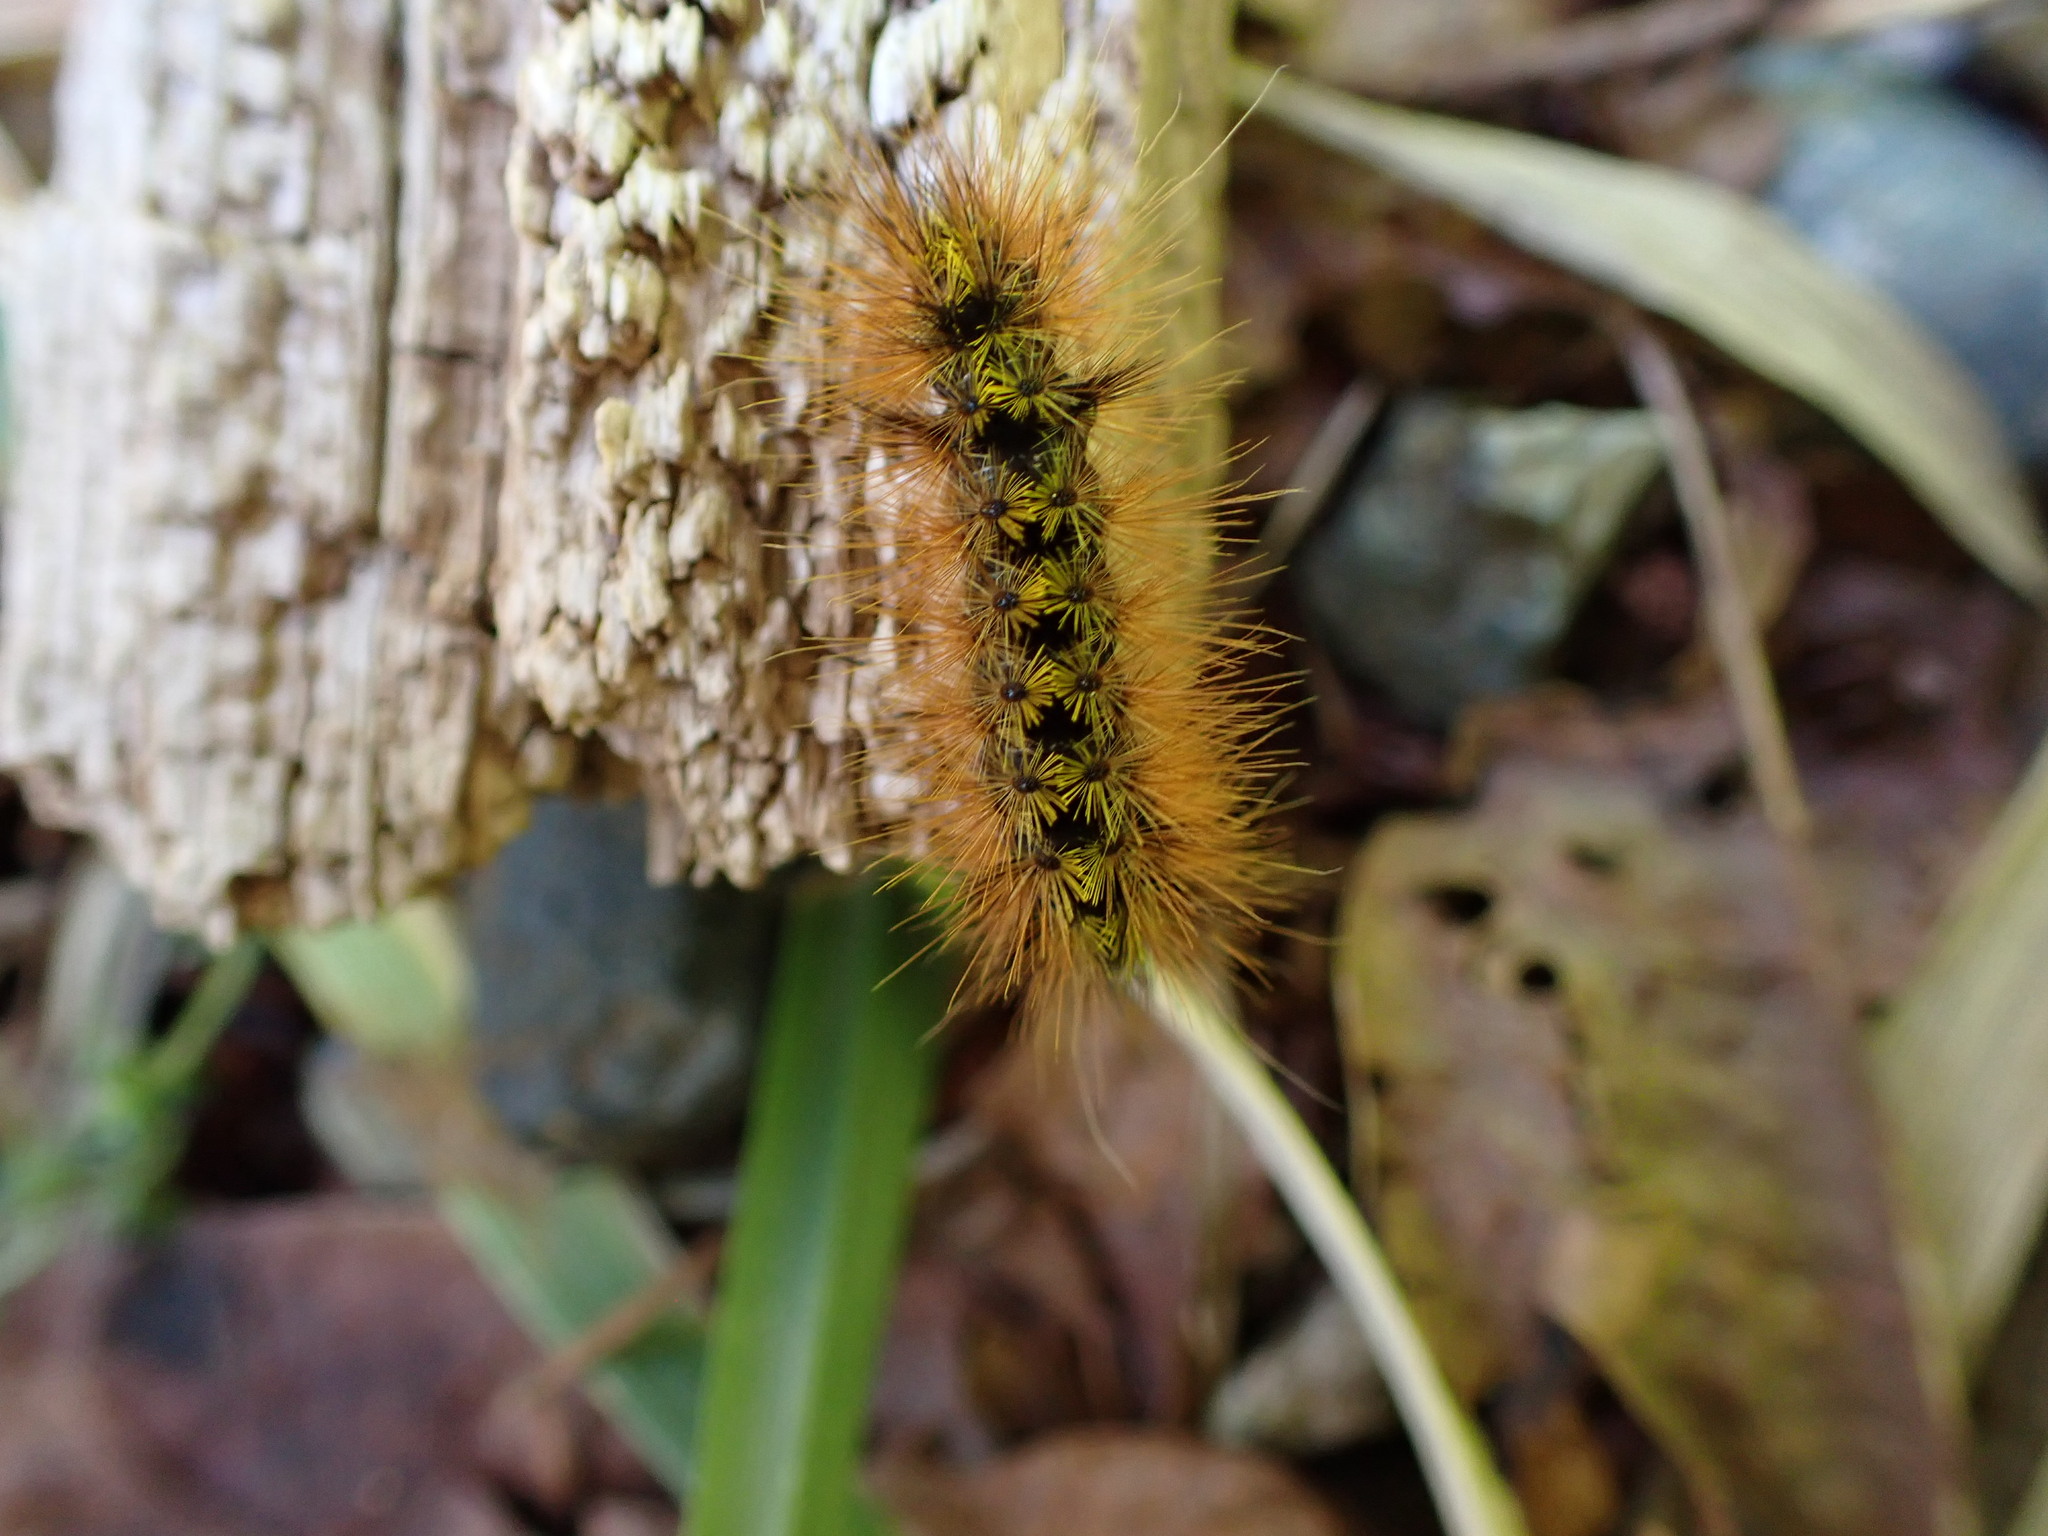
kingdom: Animalia
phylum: Arthropoda
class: Insecta
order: Lepidoptera
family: Erebidae
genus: Lophocampa
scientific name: Lophocampa argentata
